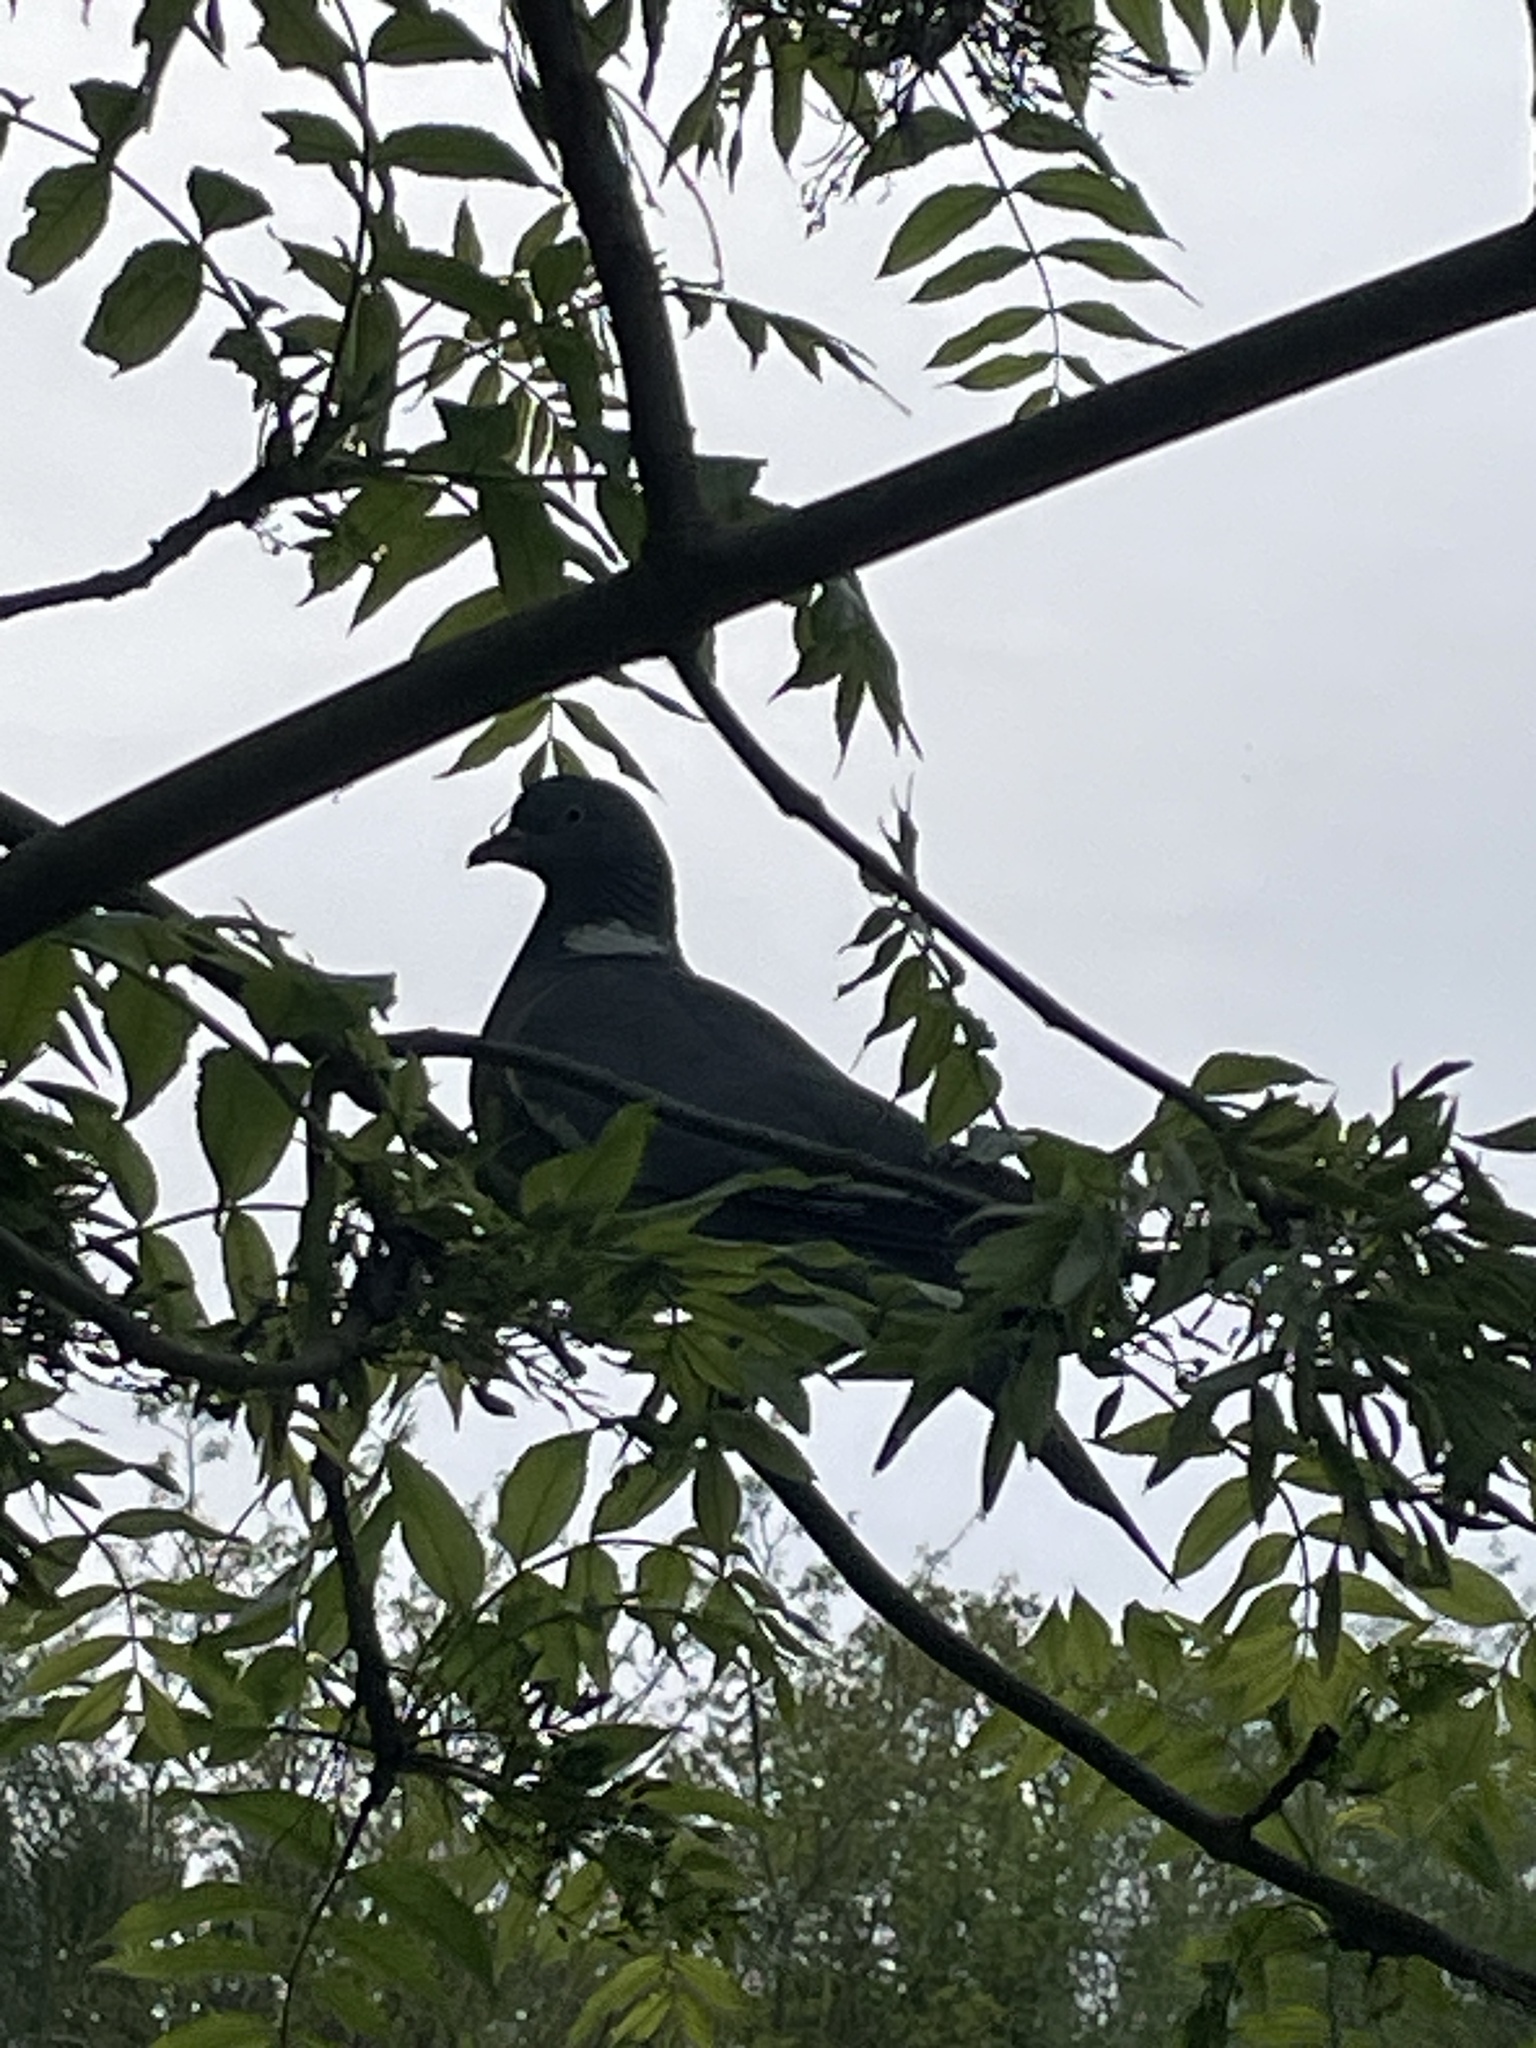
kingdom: Animalia
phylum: Chordata
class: Aves
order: Columbiformes
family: Columbidae
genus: Columba
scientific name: Columba palumbus
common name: Common wood pigeon
